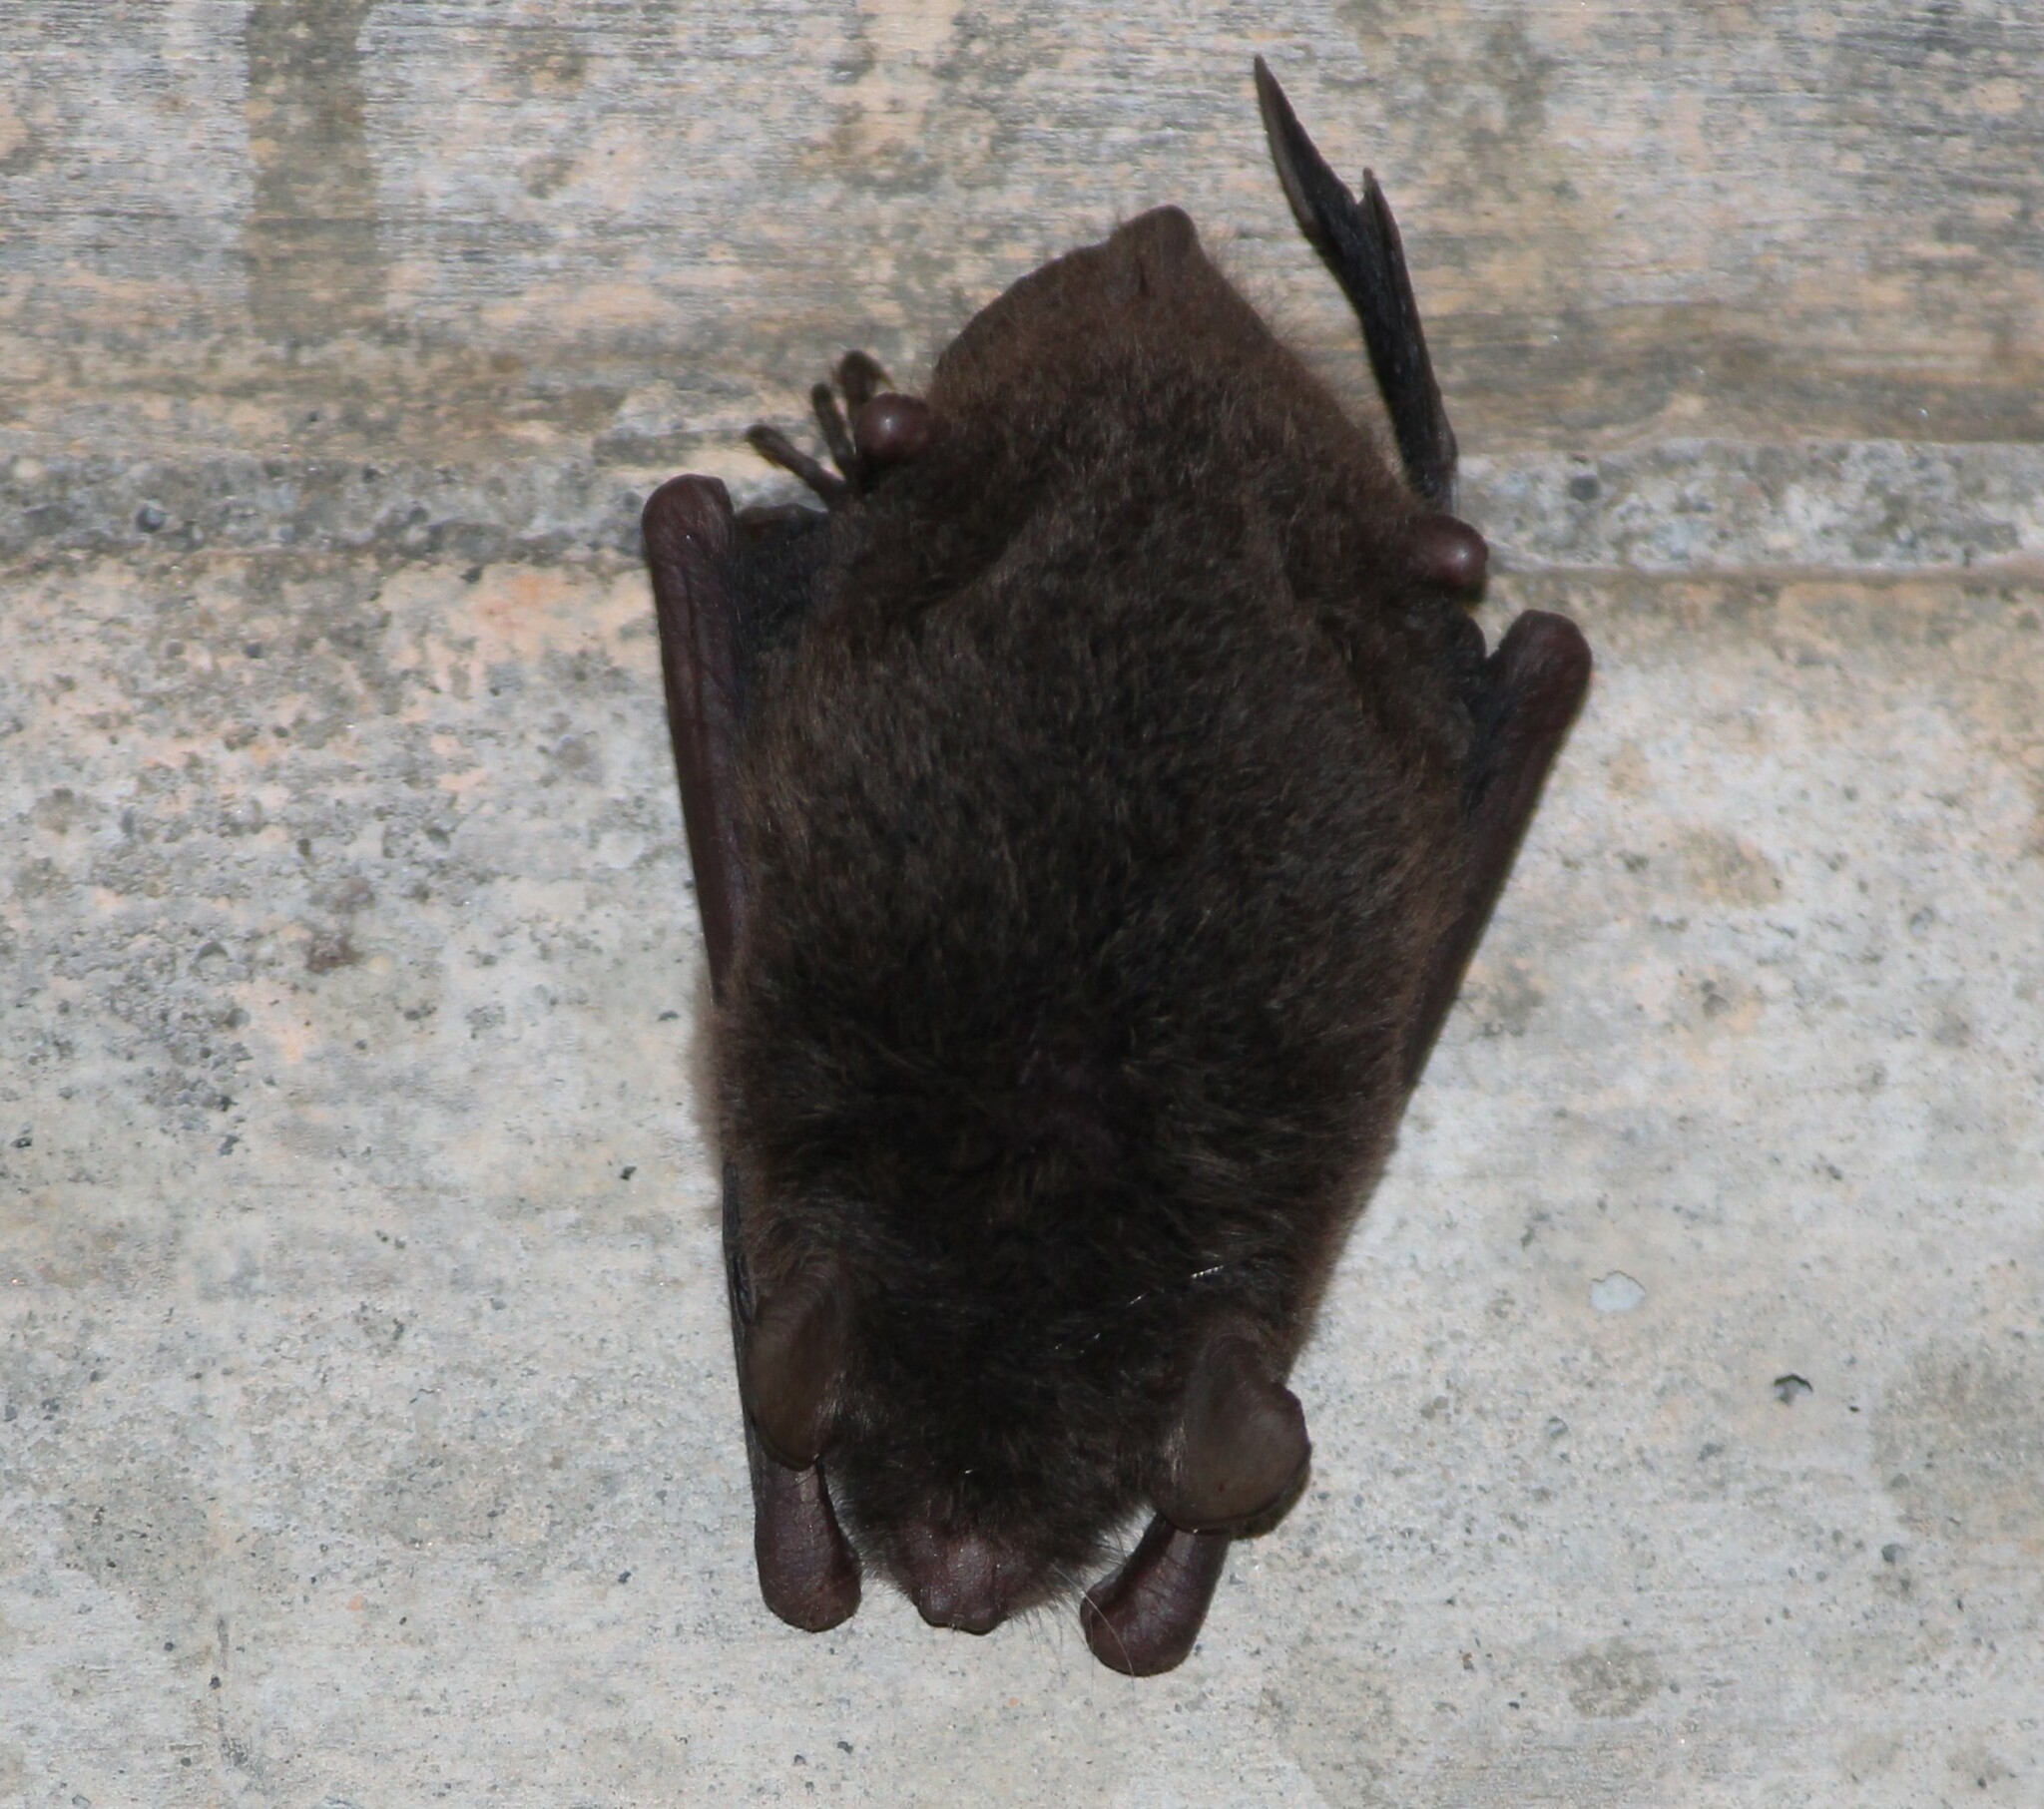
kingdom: Animalia
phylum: Chordata
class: Mammalia
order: Chiroptera
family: Vespertilionidae
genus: Myotis
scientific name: Myotis austroriparius
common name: Southeastern myotis
